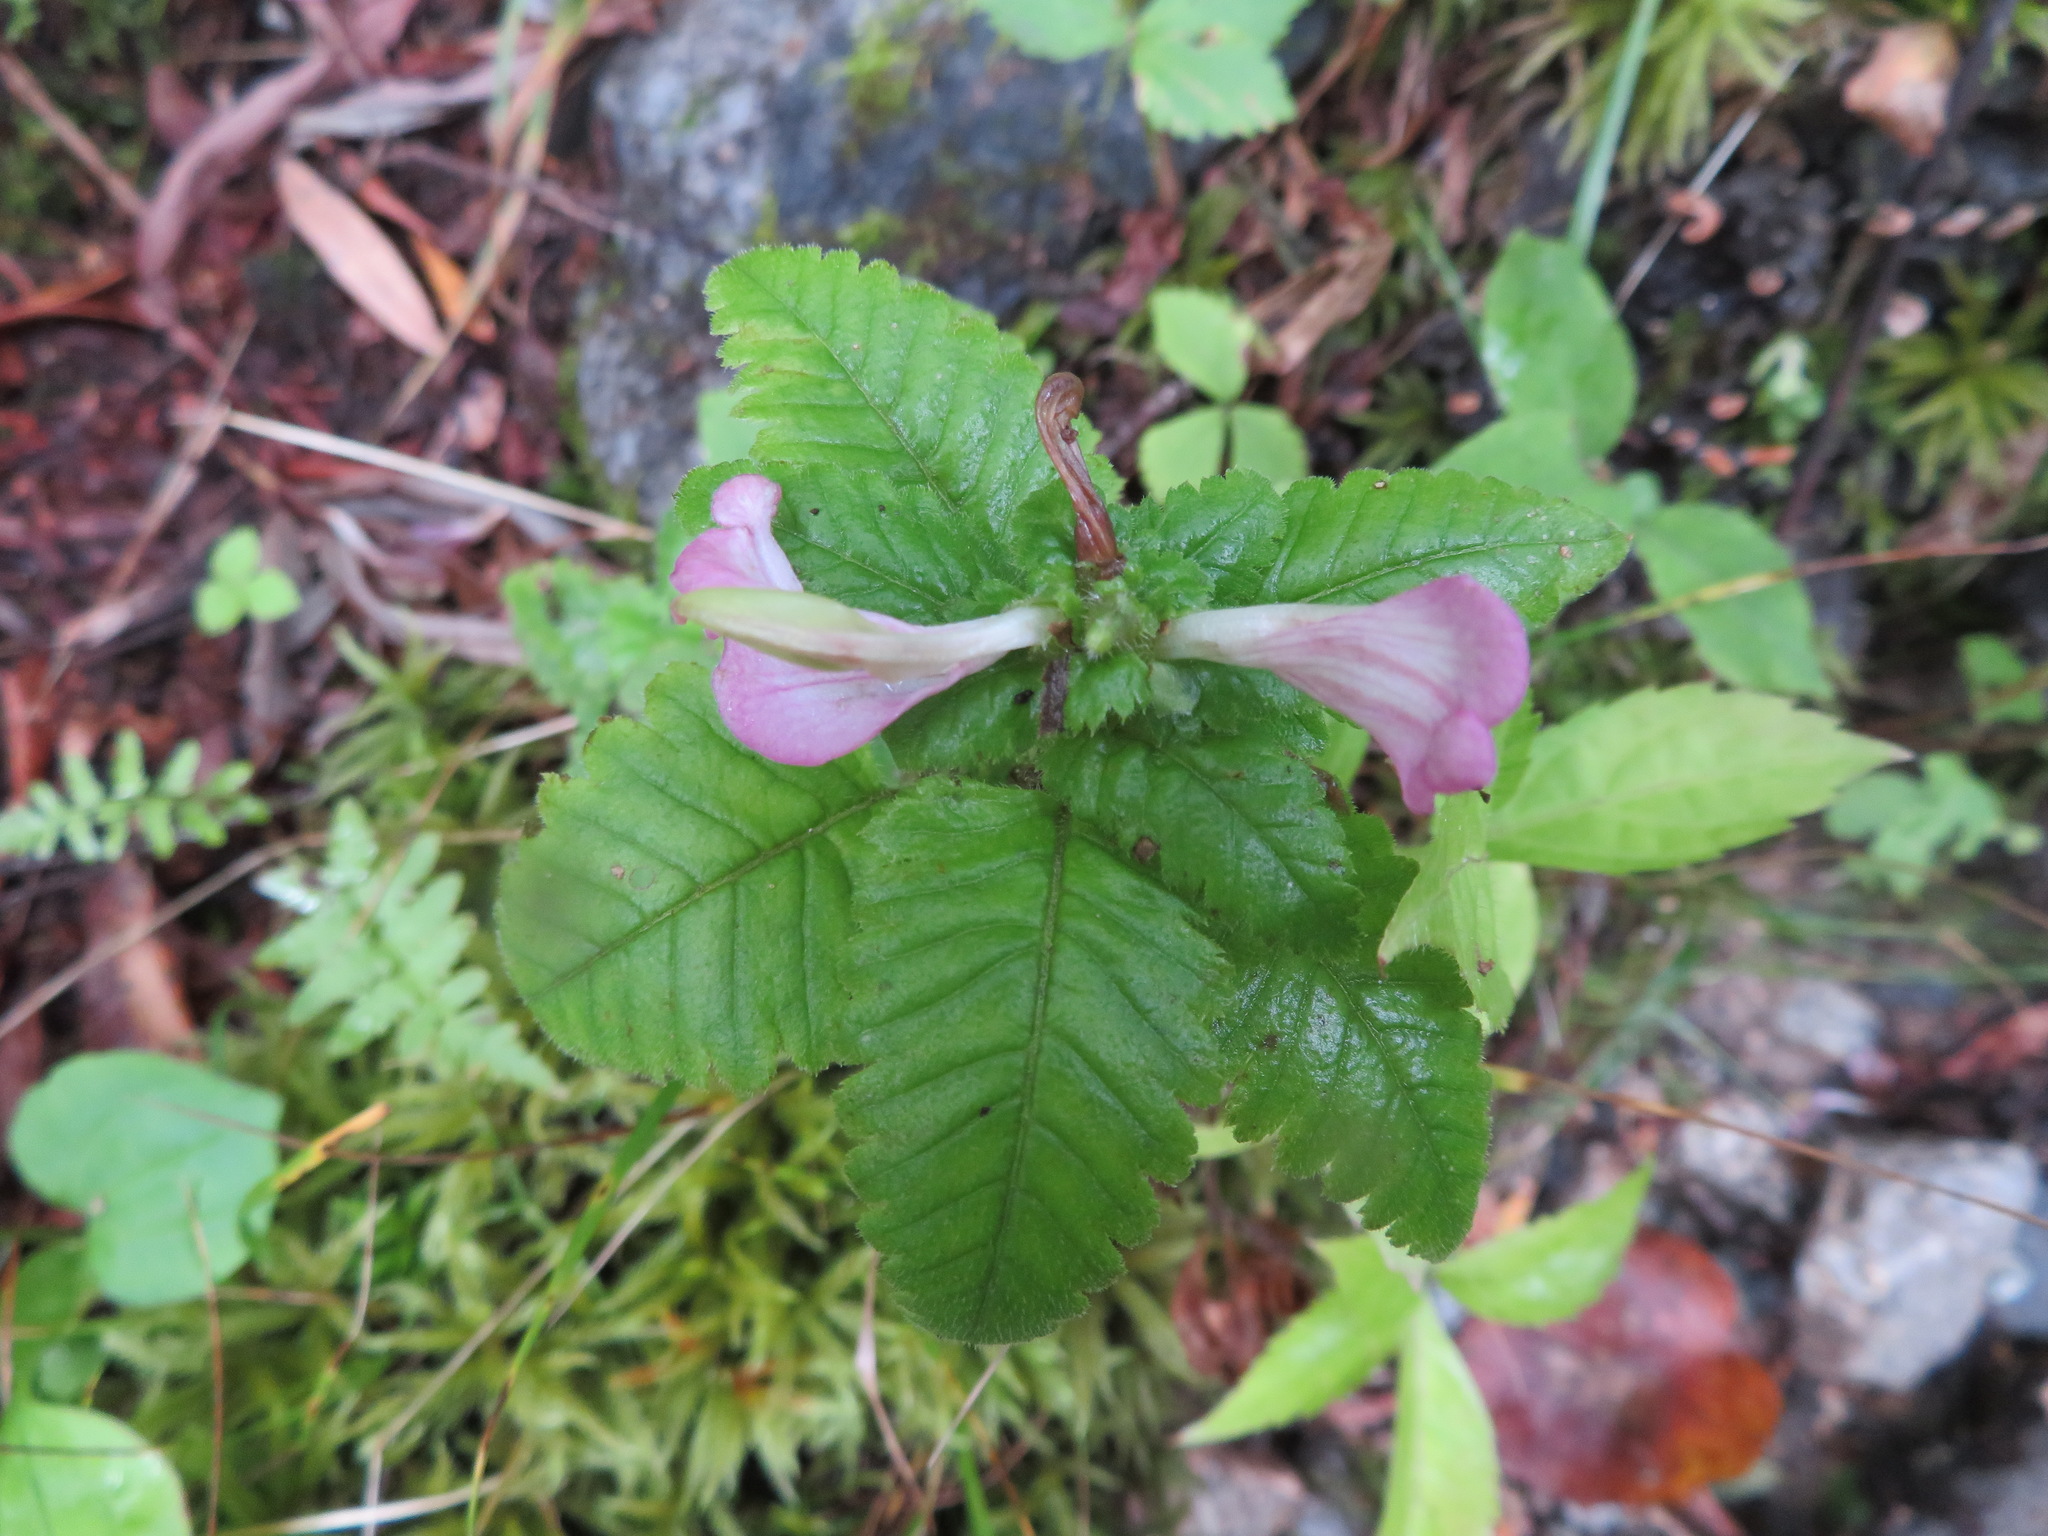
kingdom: Plantae
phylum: Tracheophyta
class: Magnoliopsida
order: Lamiales
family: Orobanchaceae
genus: Pedicularis
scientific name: Pedicularis resupinata
